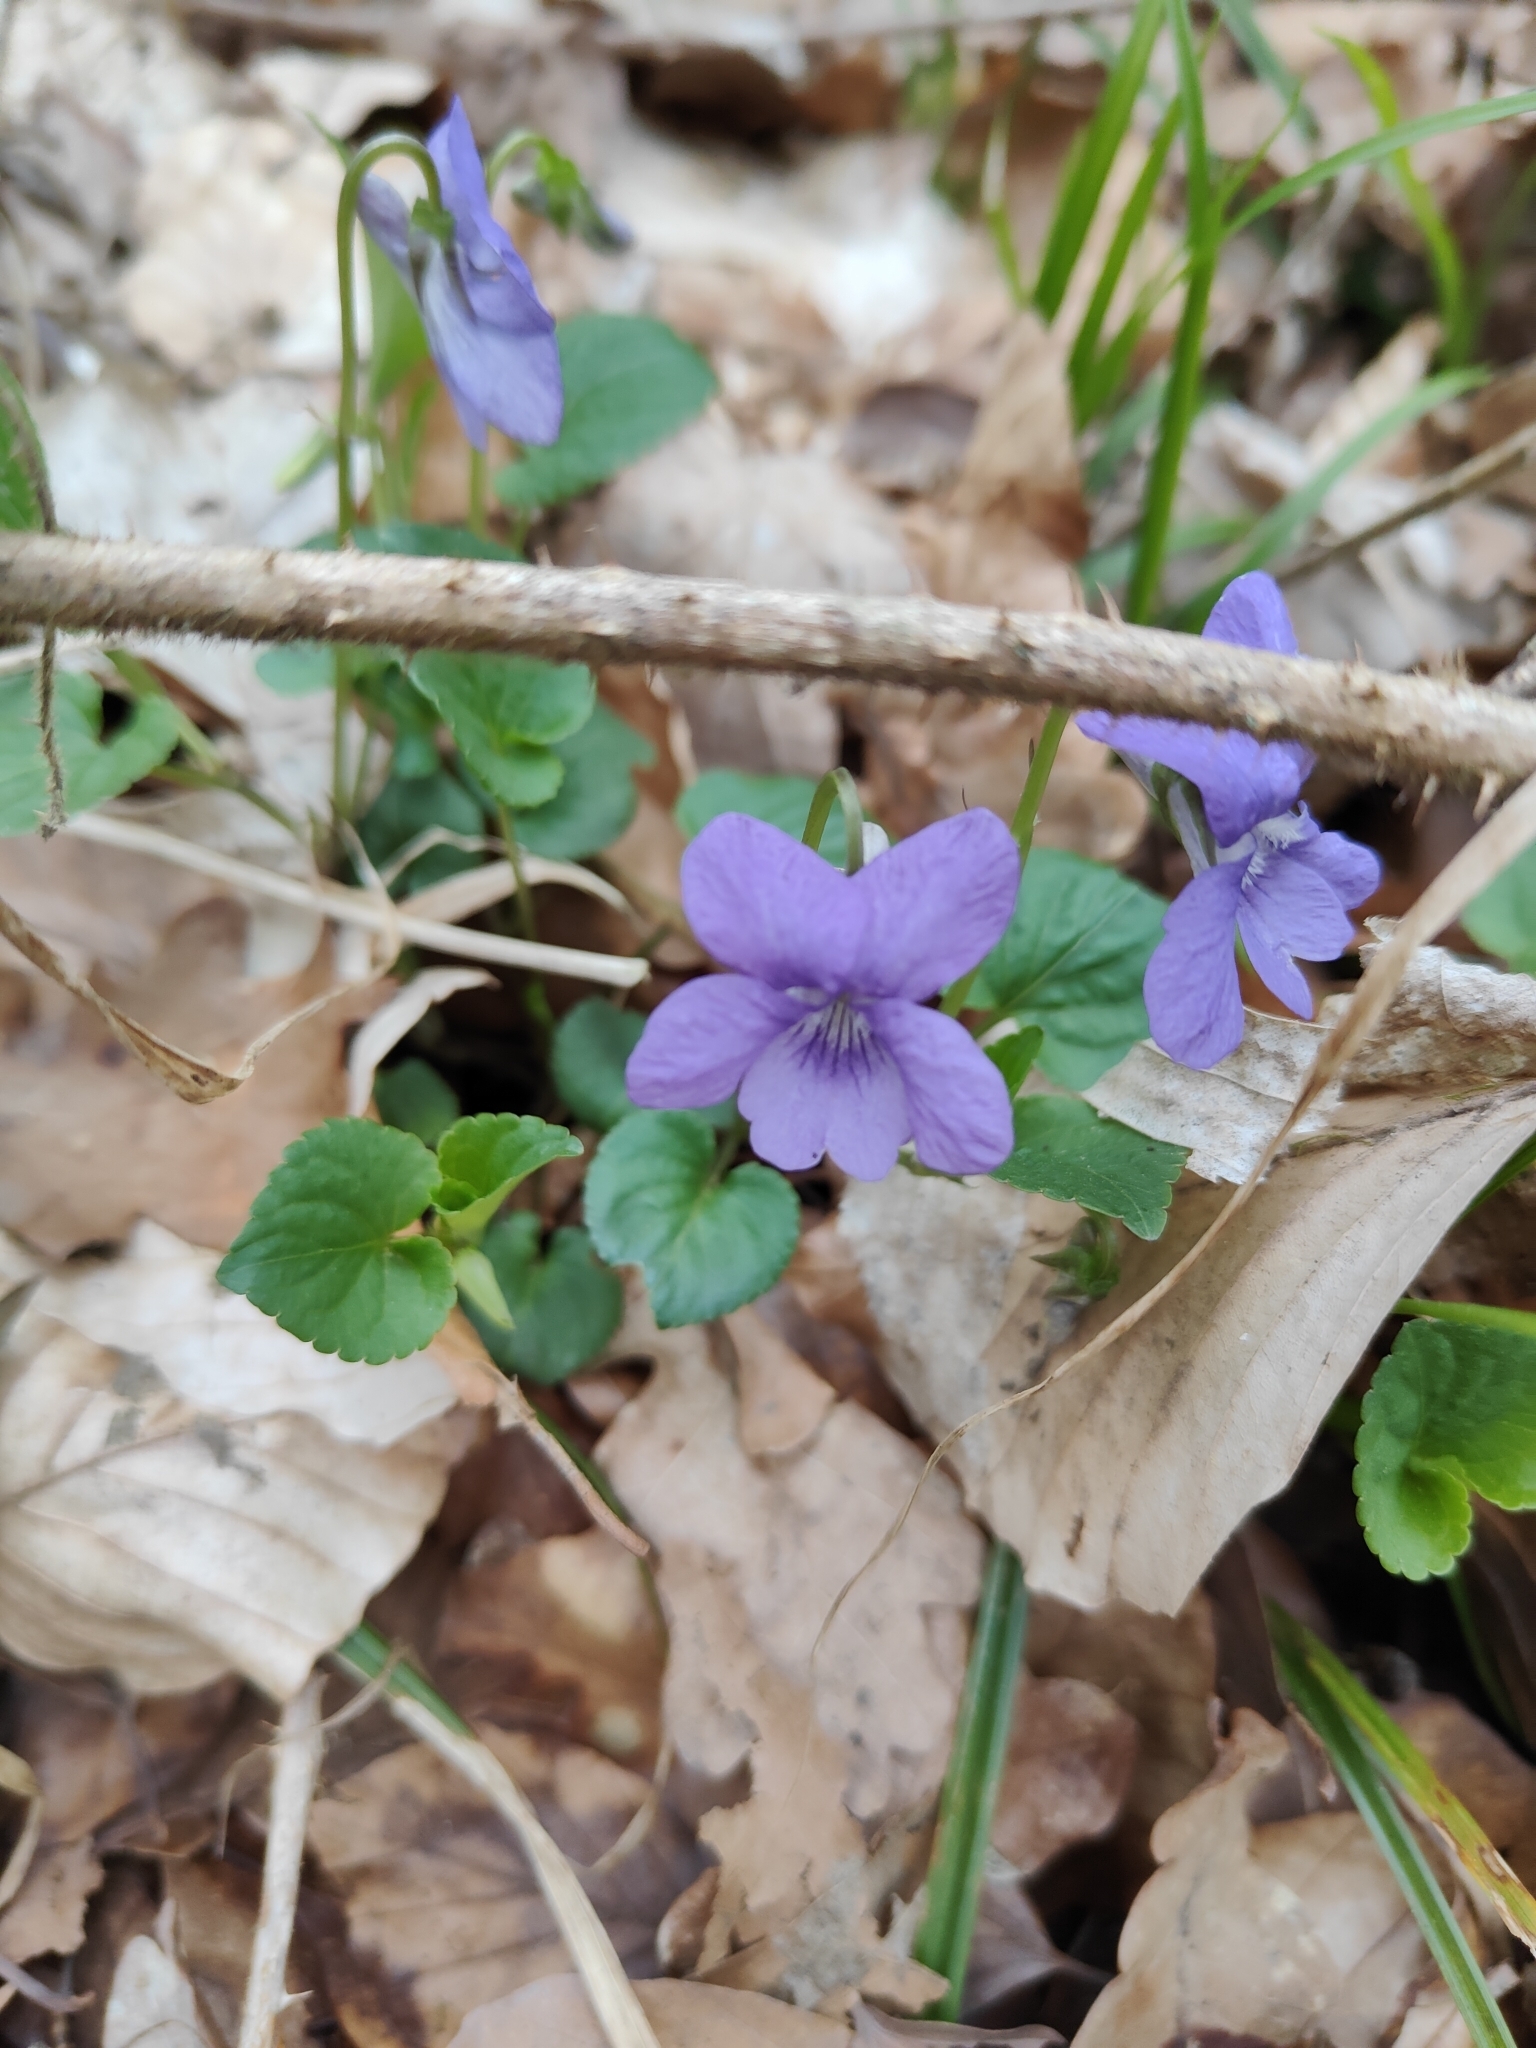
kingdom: Plantae
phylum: Tracheophyta
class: Magnoliopsida
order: Malpighiales
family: Violaceae
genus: Viola
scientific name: Viola reichenbachiana
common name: Early dog-violet
